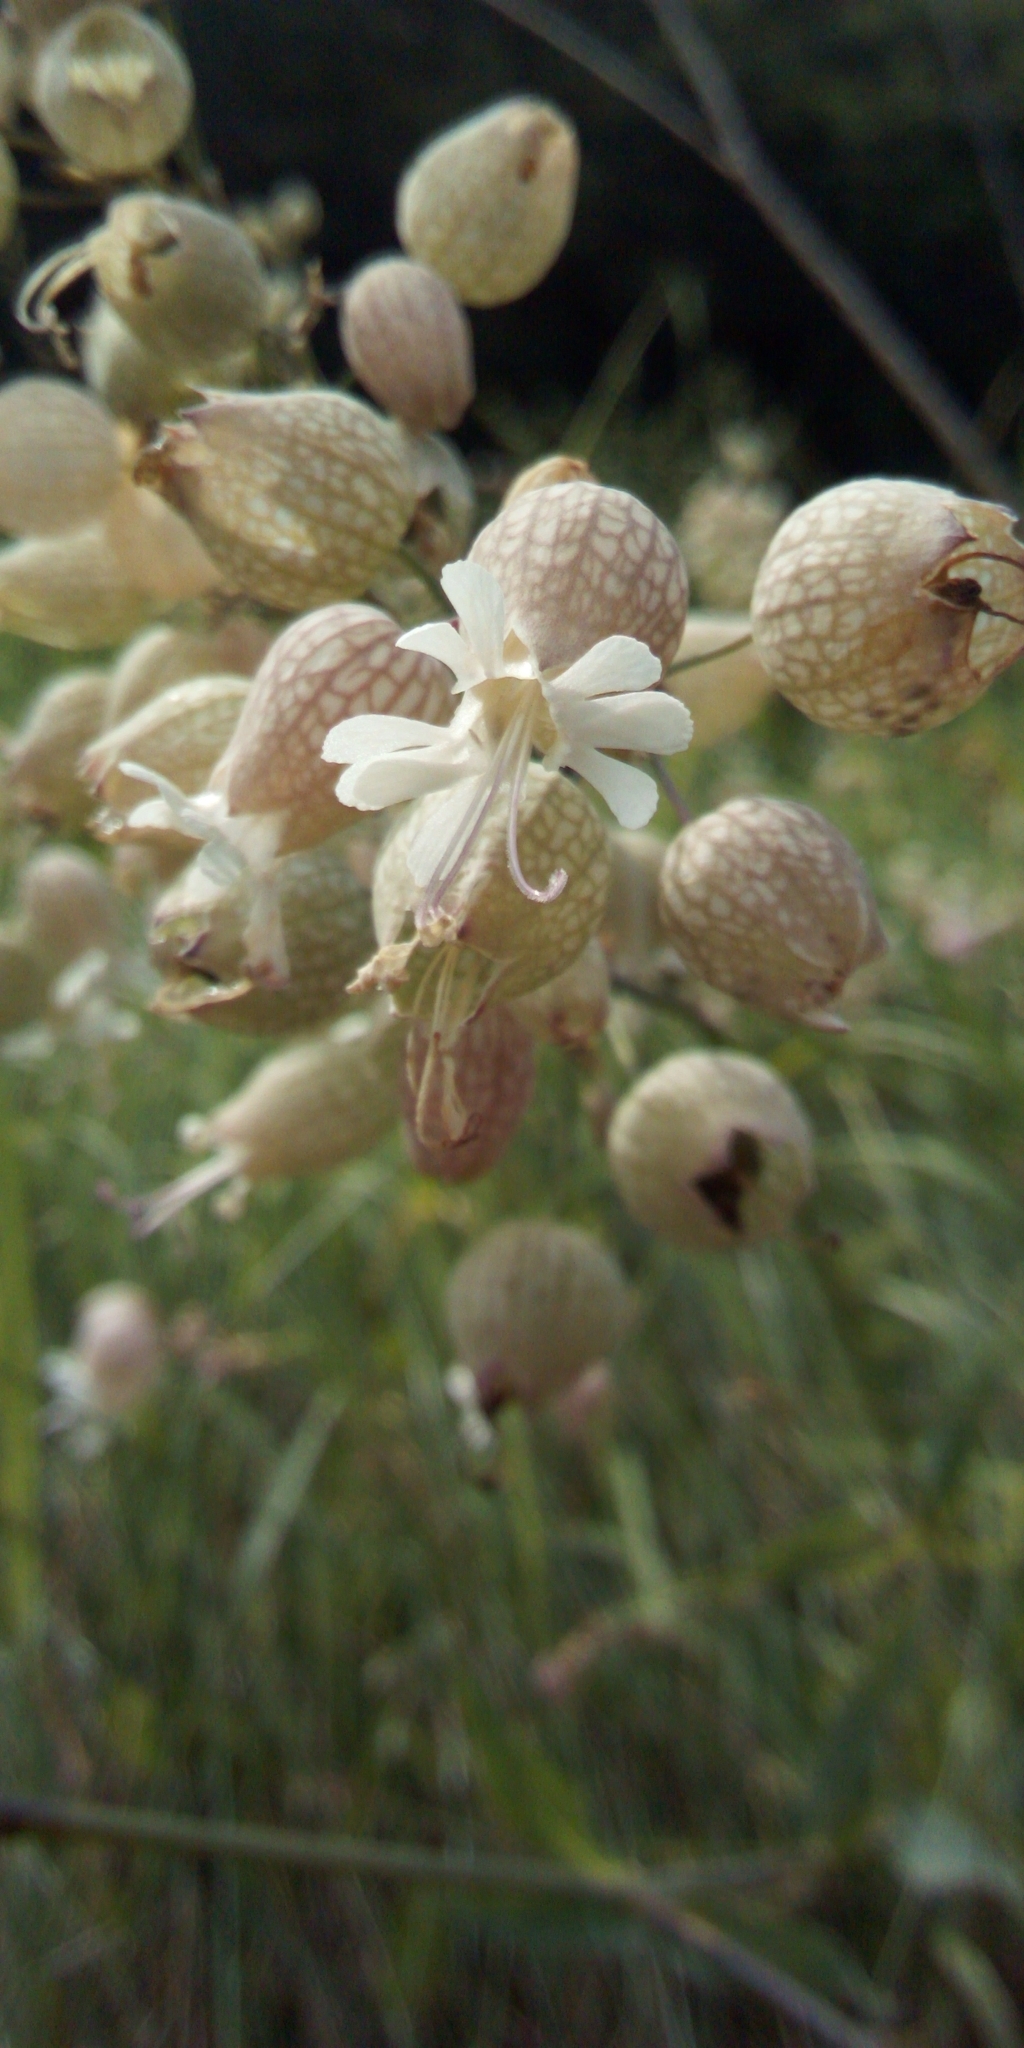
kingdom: Plantae
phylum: Tracheophyta
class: Magnoliopsida
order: Caryophyllales
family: Caryophyllaceae
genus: Silene
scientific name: Silene vulgaris
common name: Bladder campion
